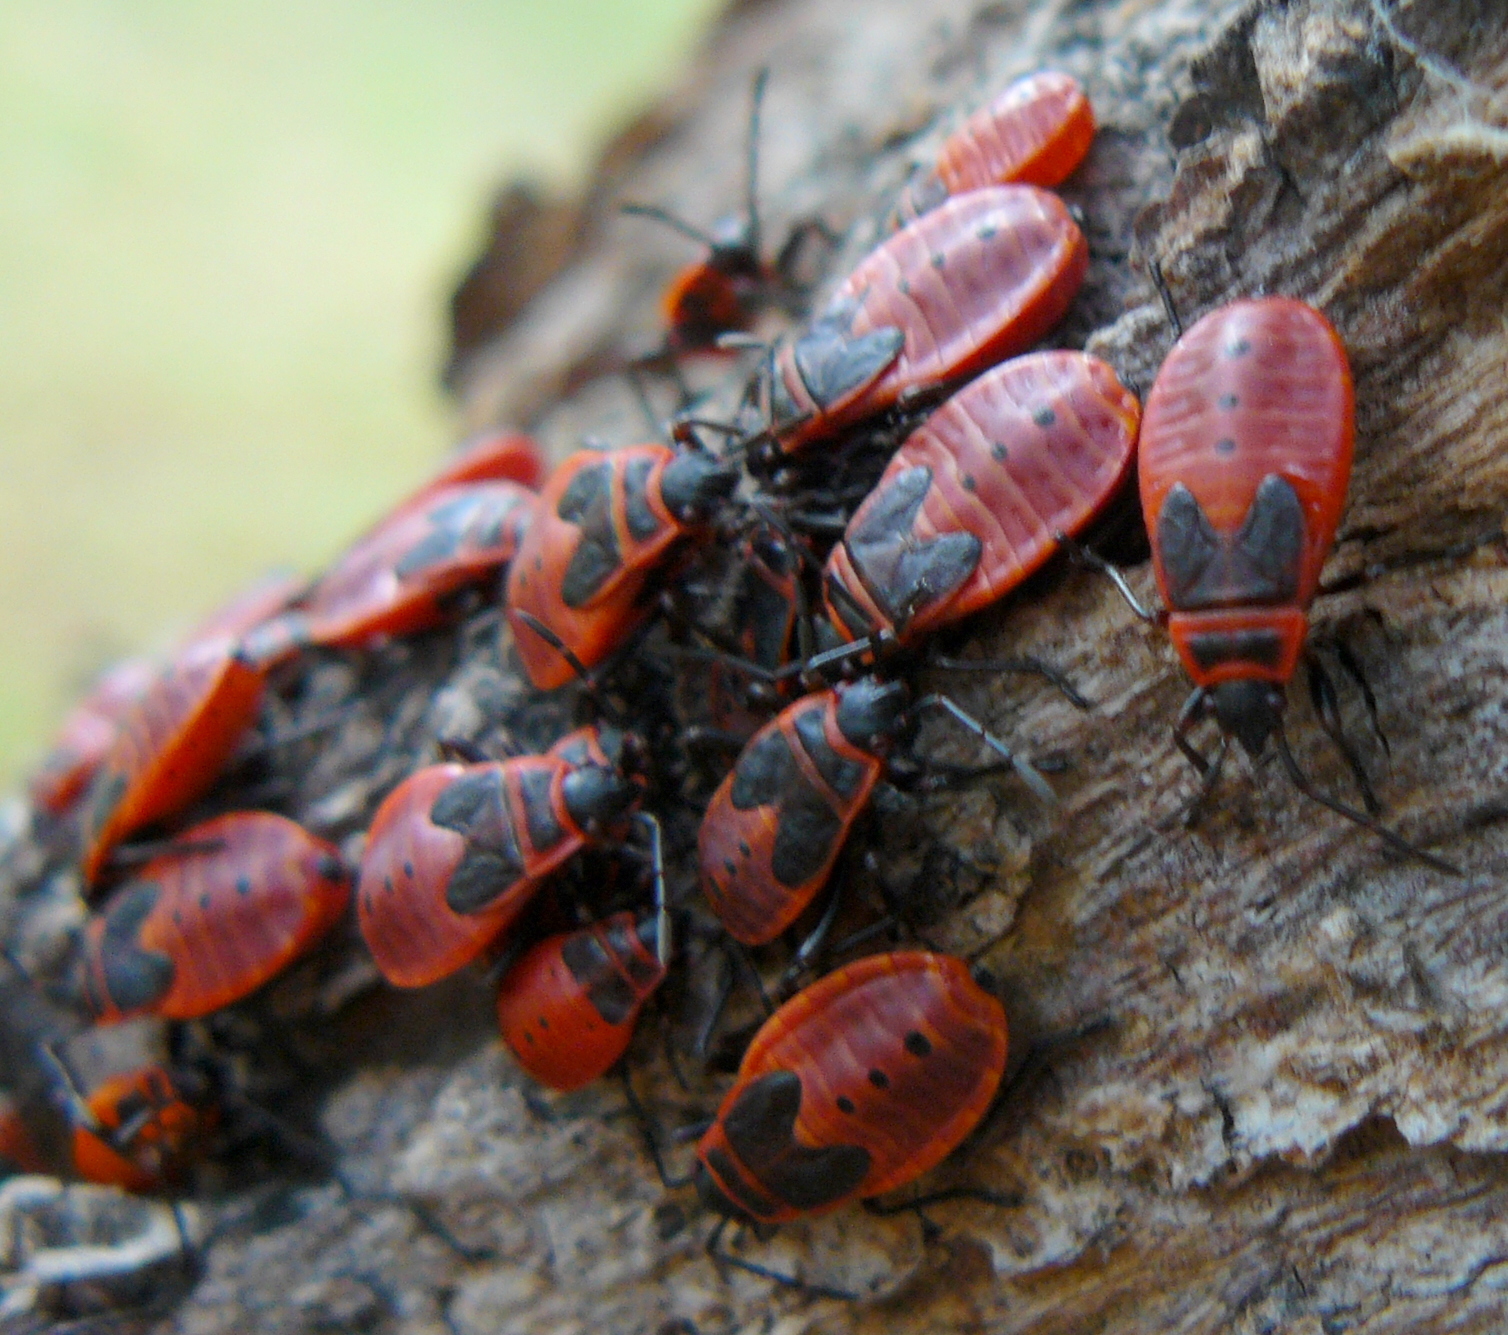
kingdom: Animalia
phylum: Arthropoda
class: Insecta
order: Hemiptera
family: Pyrrhocoridae
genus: Pyrrhocoris
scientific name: Pyrrhocoris apterus
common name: Firebug
